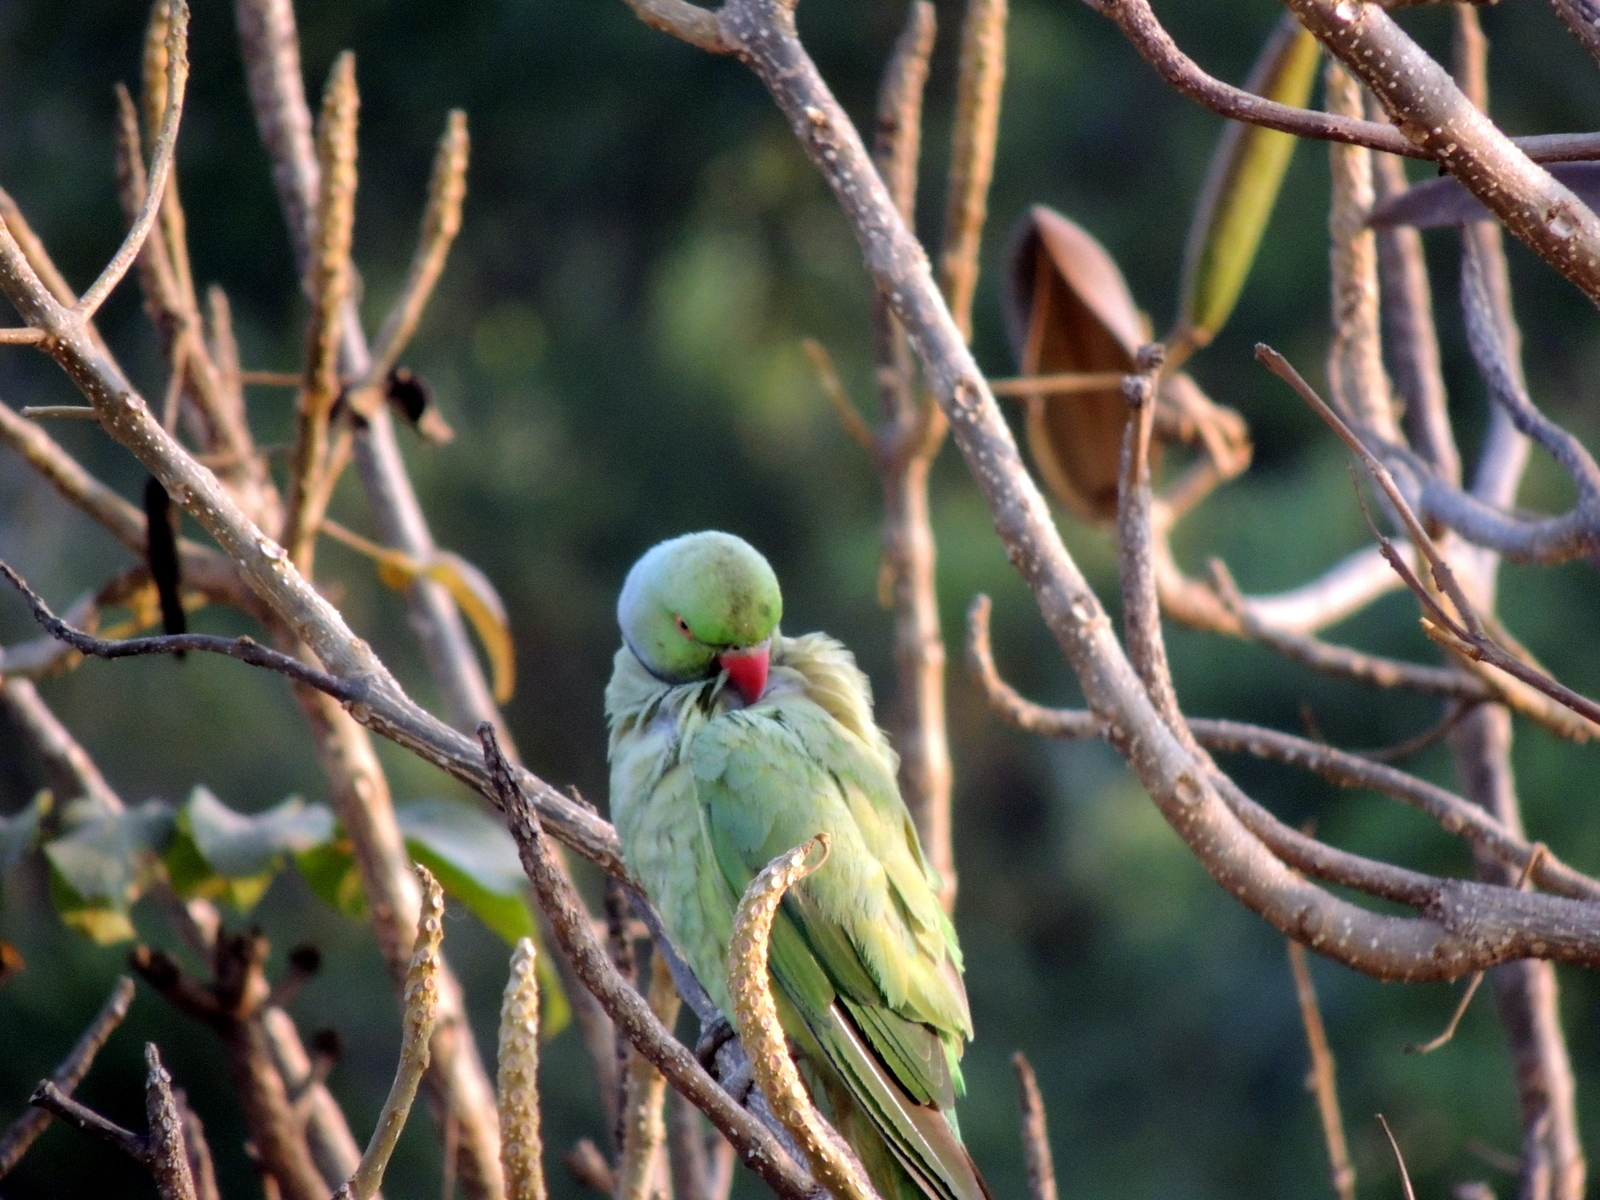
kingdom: Animalia
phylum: Chordata
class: Aves
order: Psittaciformes
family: Psittacidae
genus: Psittacula
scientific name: Psittacula krameri
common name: Rose-ringed parakeet
